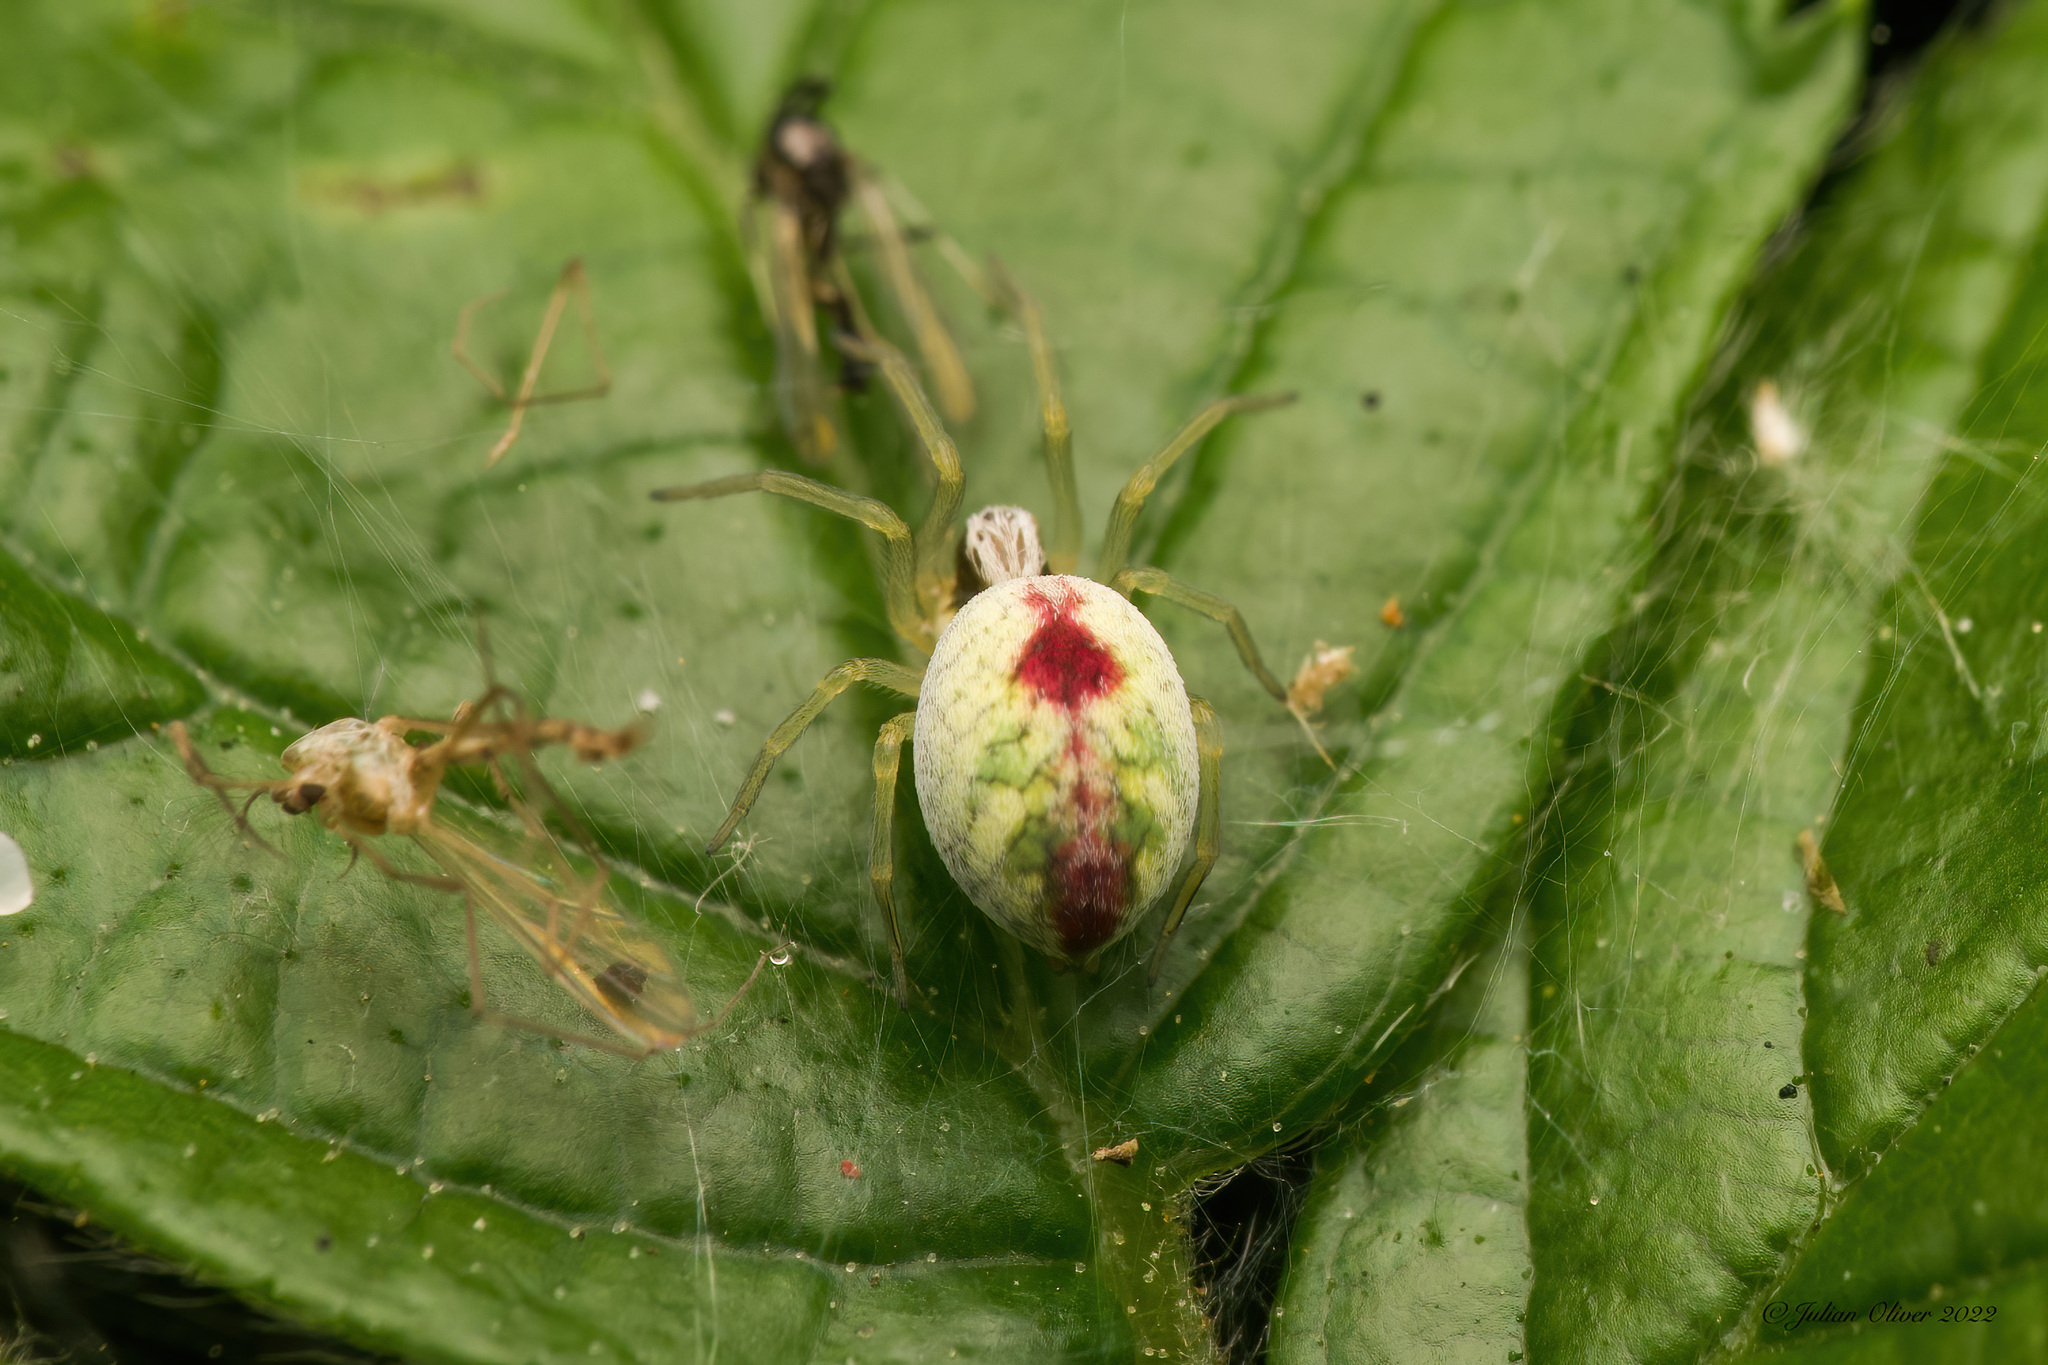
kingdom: Animalia
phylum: Arthropoda
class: Arachnida
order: Araneae
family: Dictynidae
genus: Nigma
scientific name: Nigma puella
